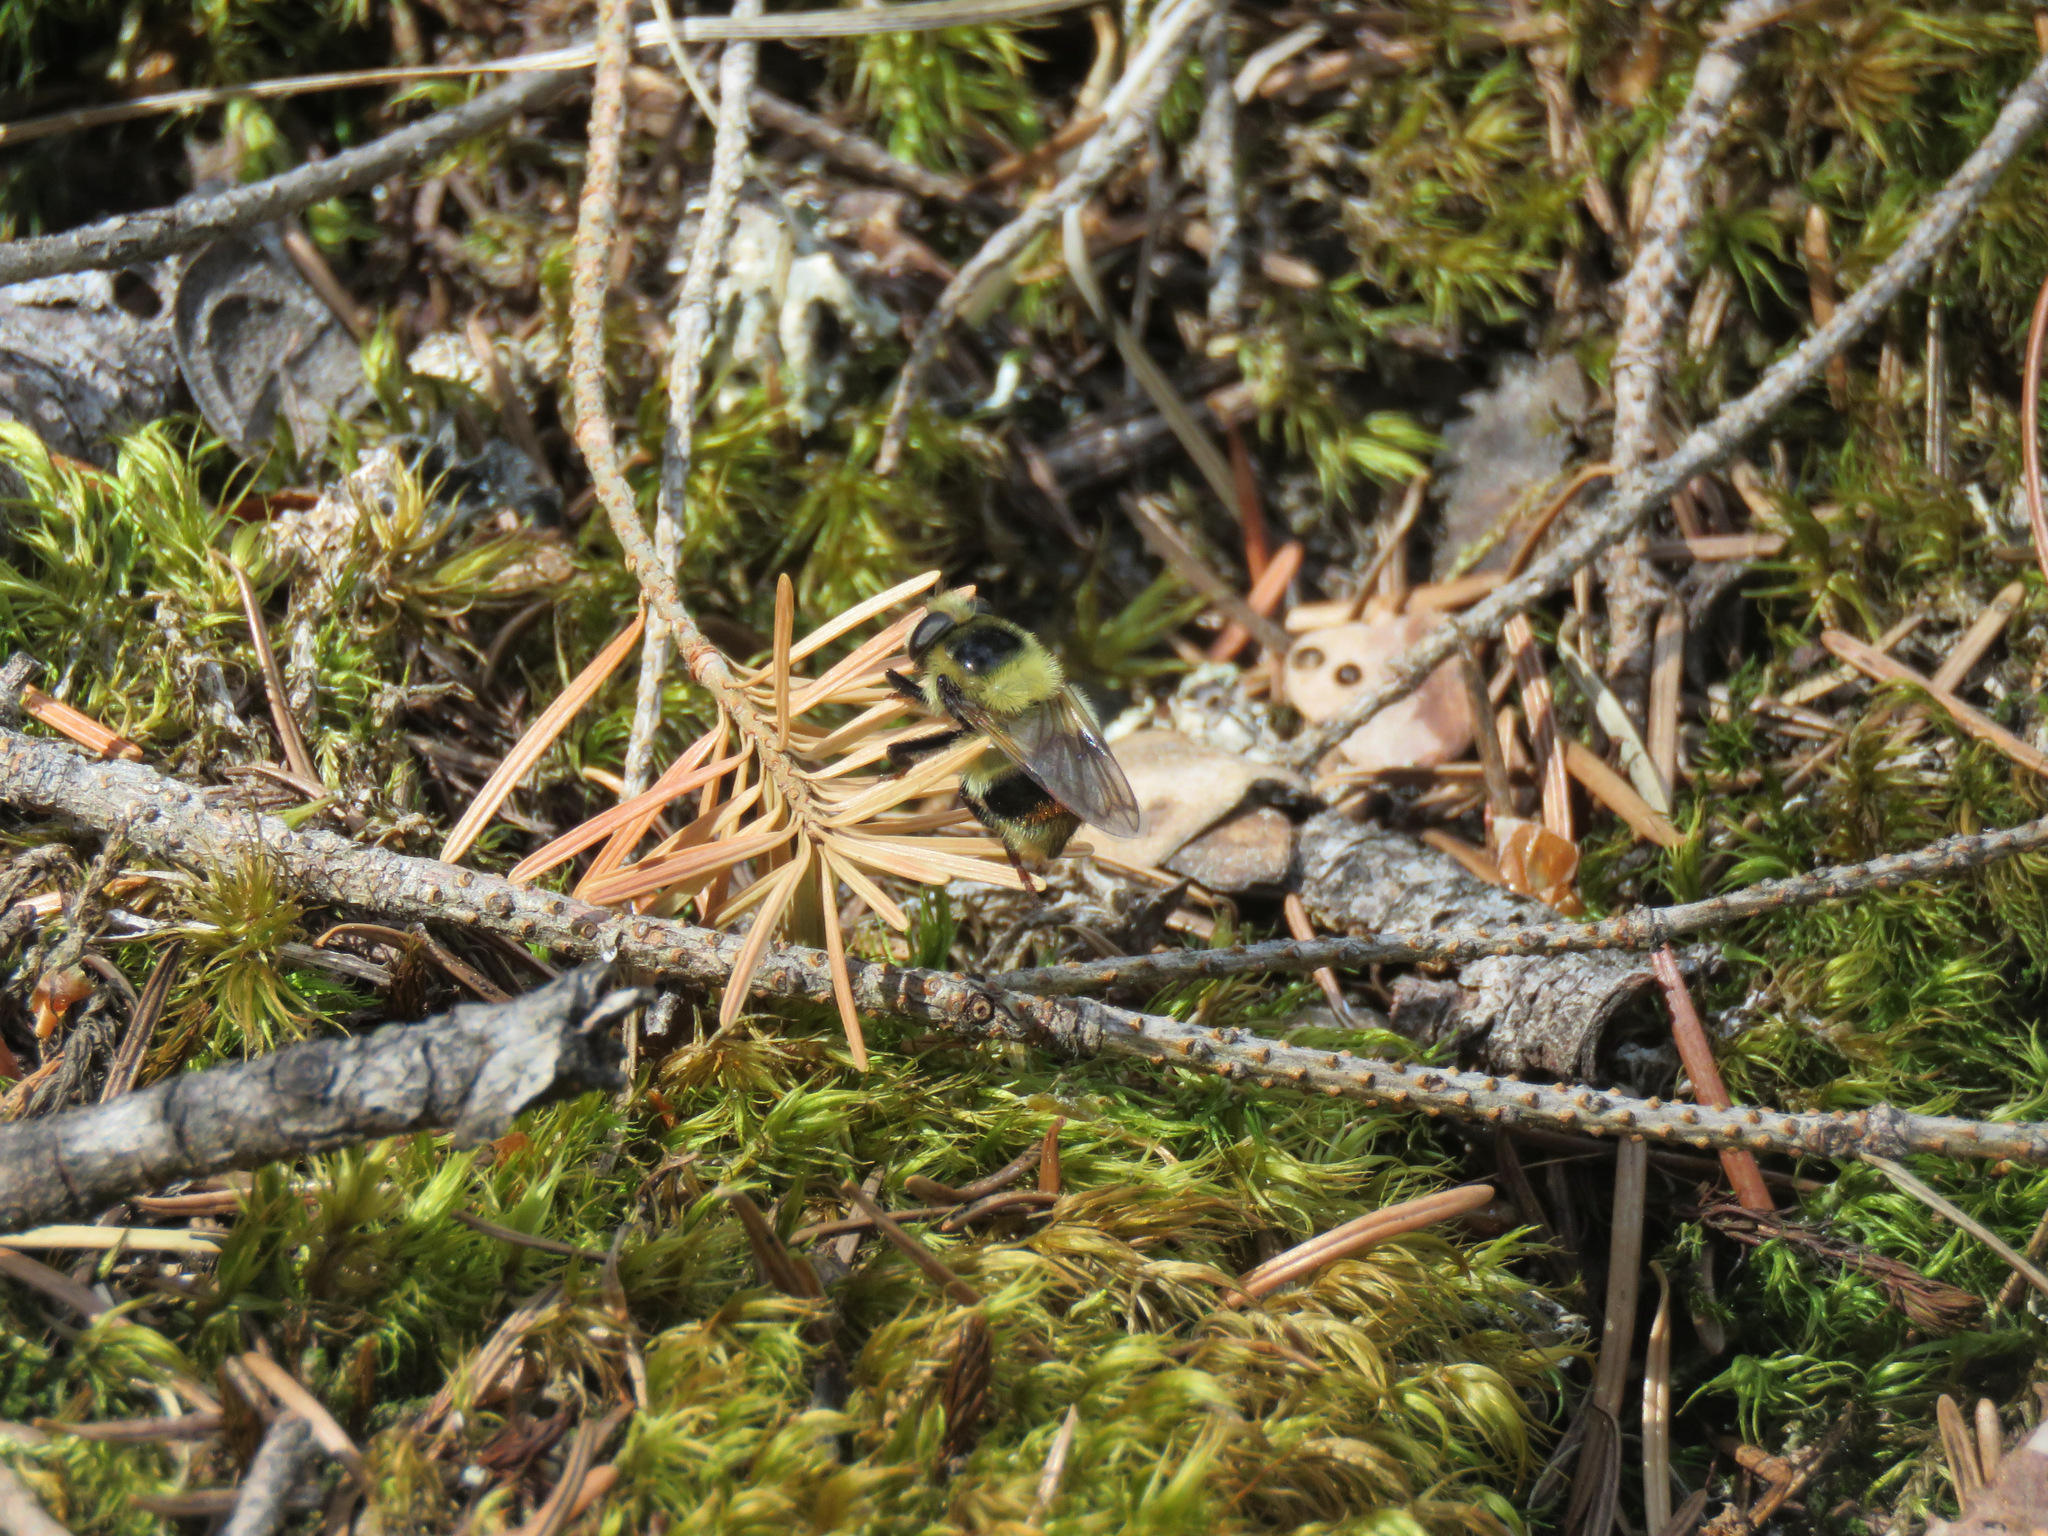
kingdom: Animalia
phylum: Arthropoda
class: Insecta
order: Diptera
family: Syrphidae
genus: Volucella
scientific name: Volucella facialis
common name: Yellow-faced swiftwing
